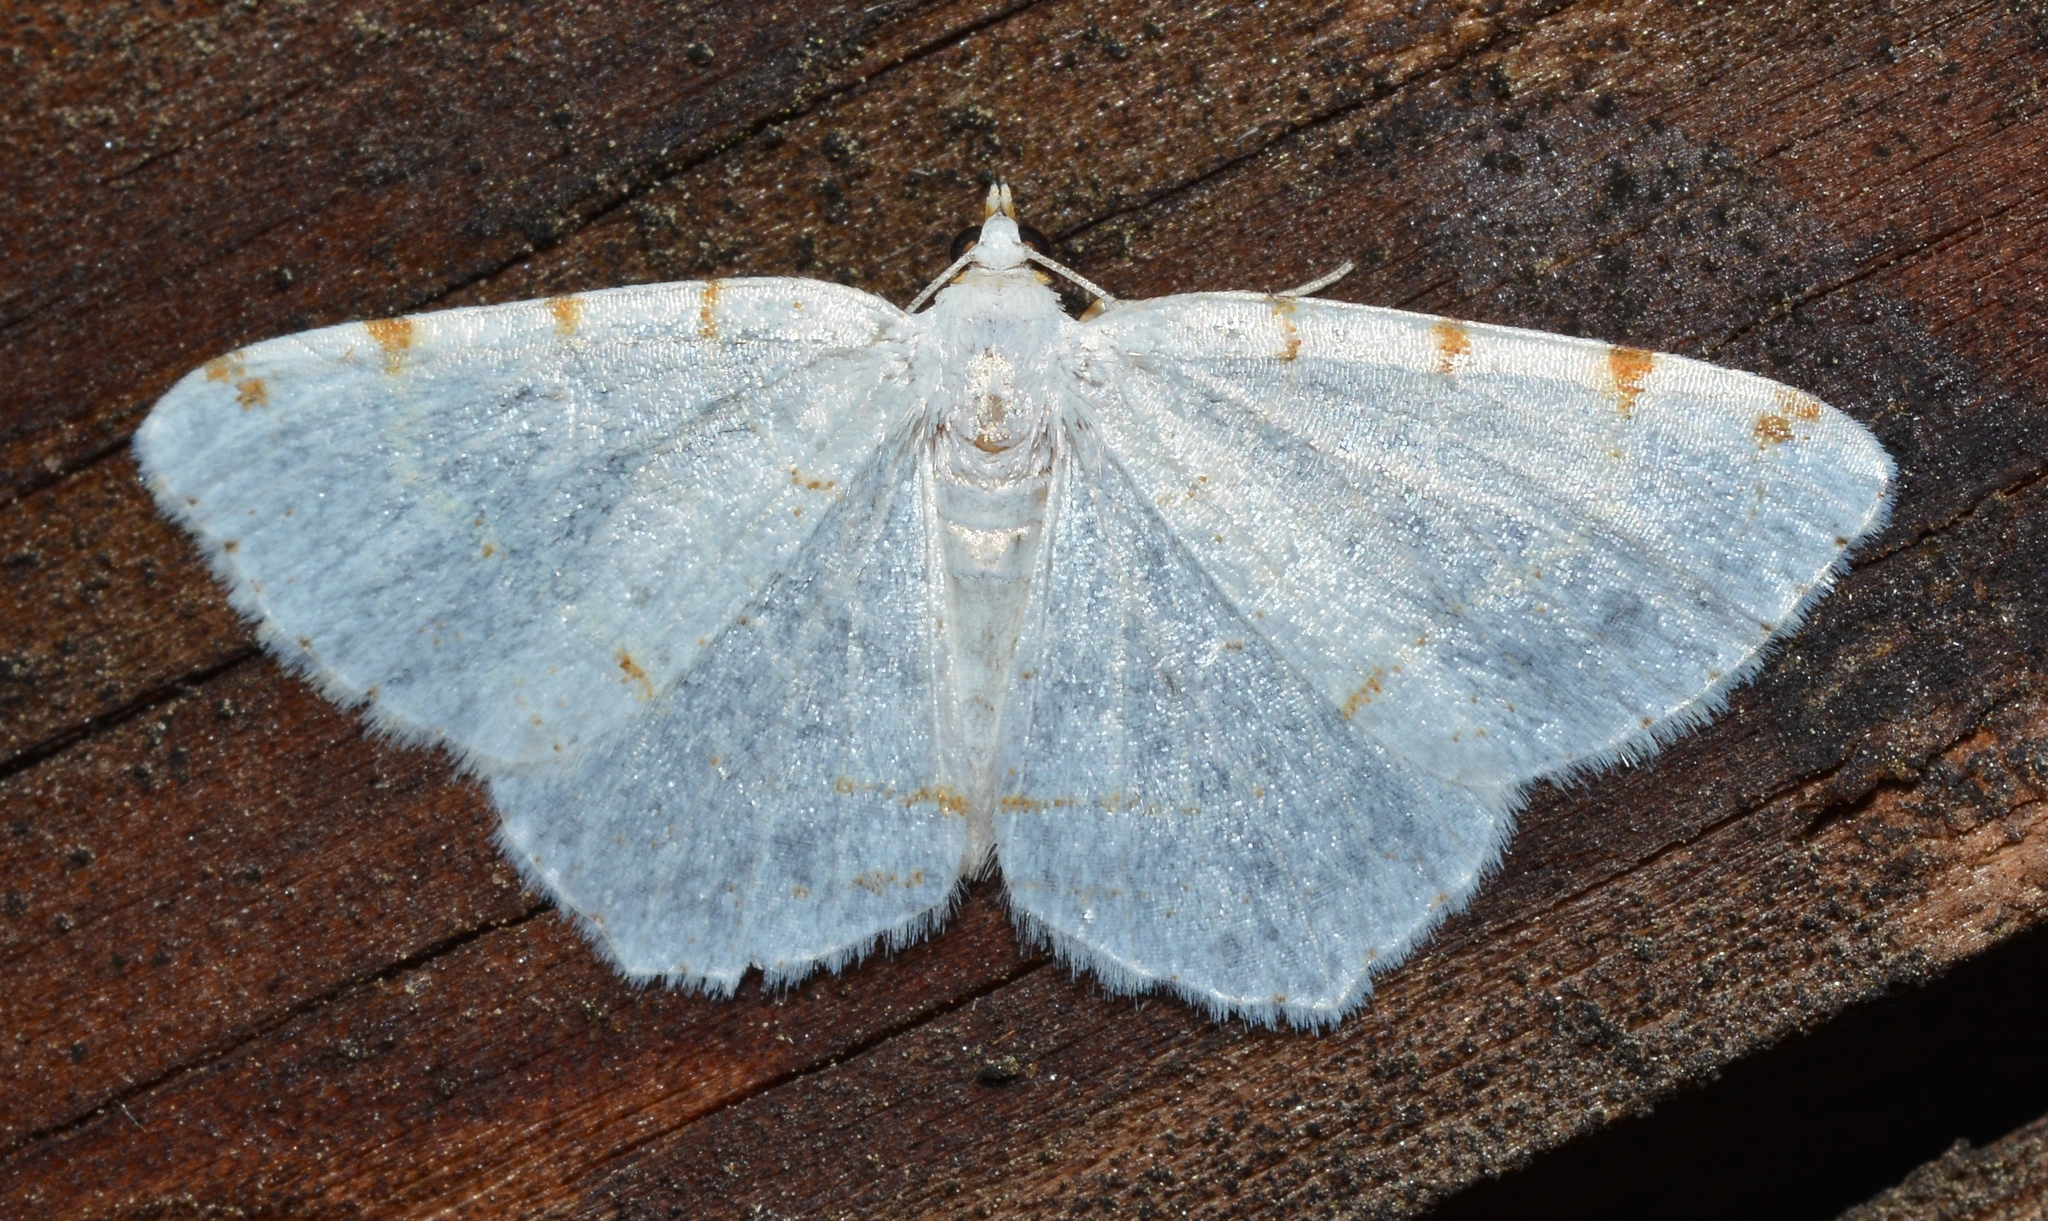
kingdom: Animalia
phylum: Arthropoda
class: Insecta
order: Lepidoptera
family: Geometridae
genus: Macaria
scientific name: Macaria pustularia
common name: Lesser maple spanworm moth
